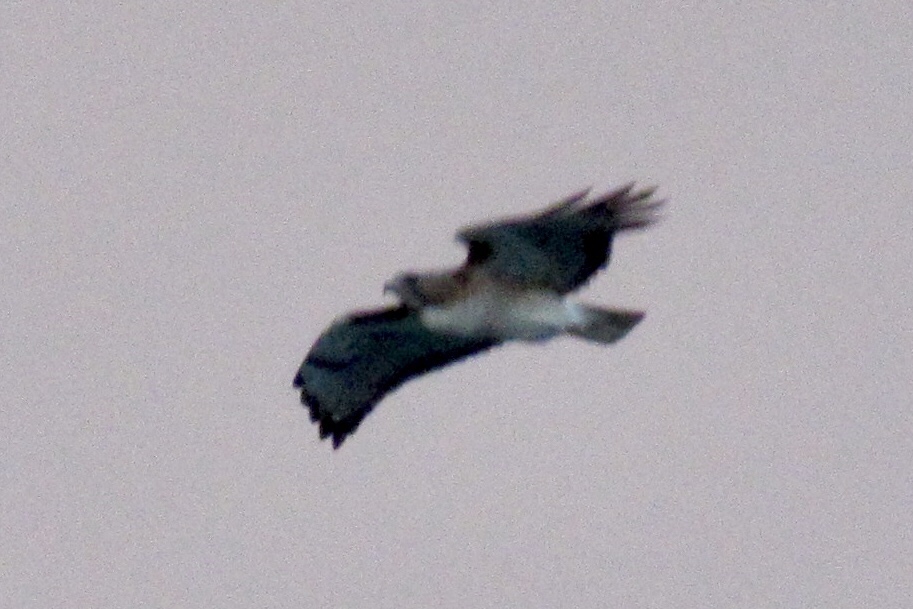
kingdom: Animalia
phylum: Chordata
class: Aves
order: Accipitriformes
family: Accipitridae
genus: Buteo
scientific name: Buteo jamaicensis
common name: Red-tailed hawk
